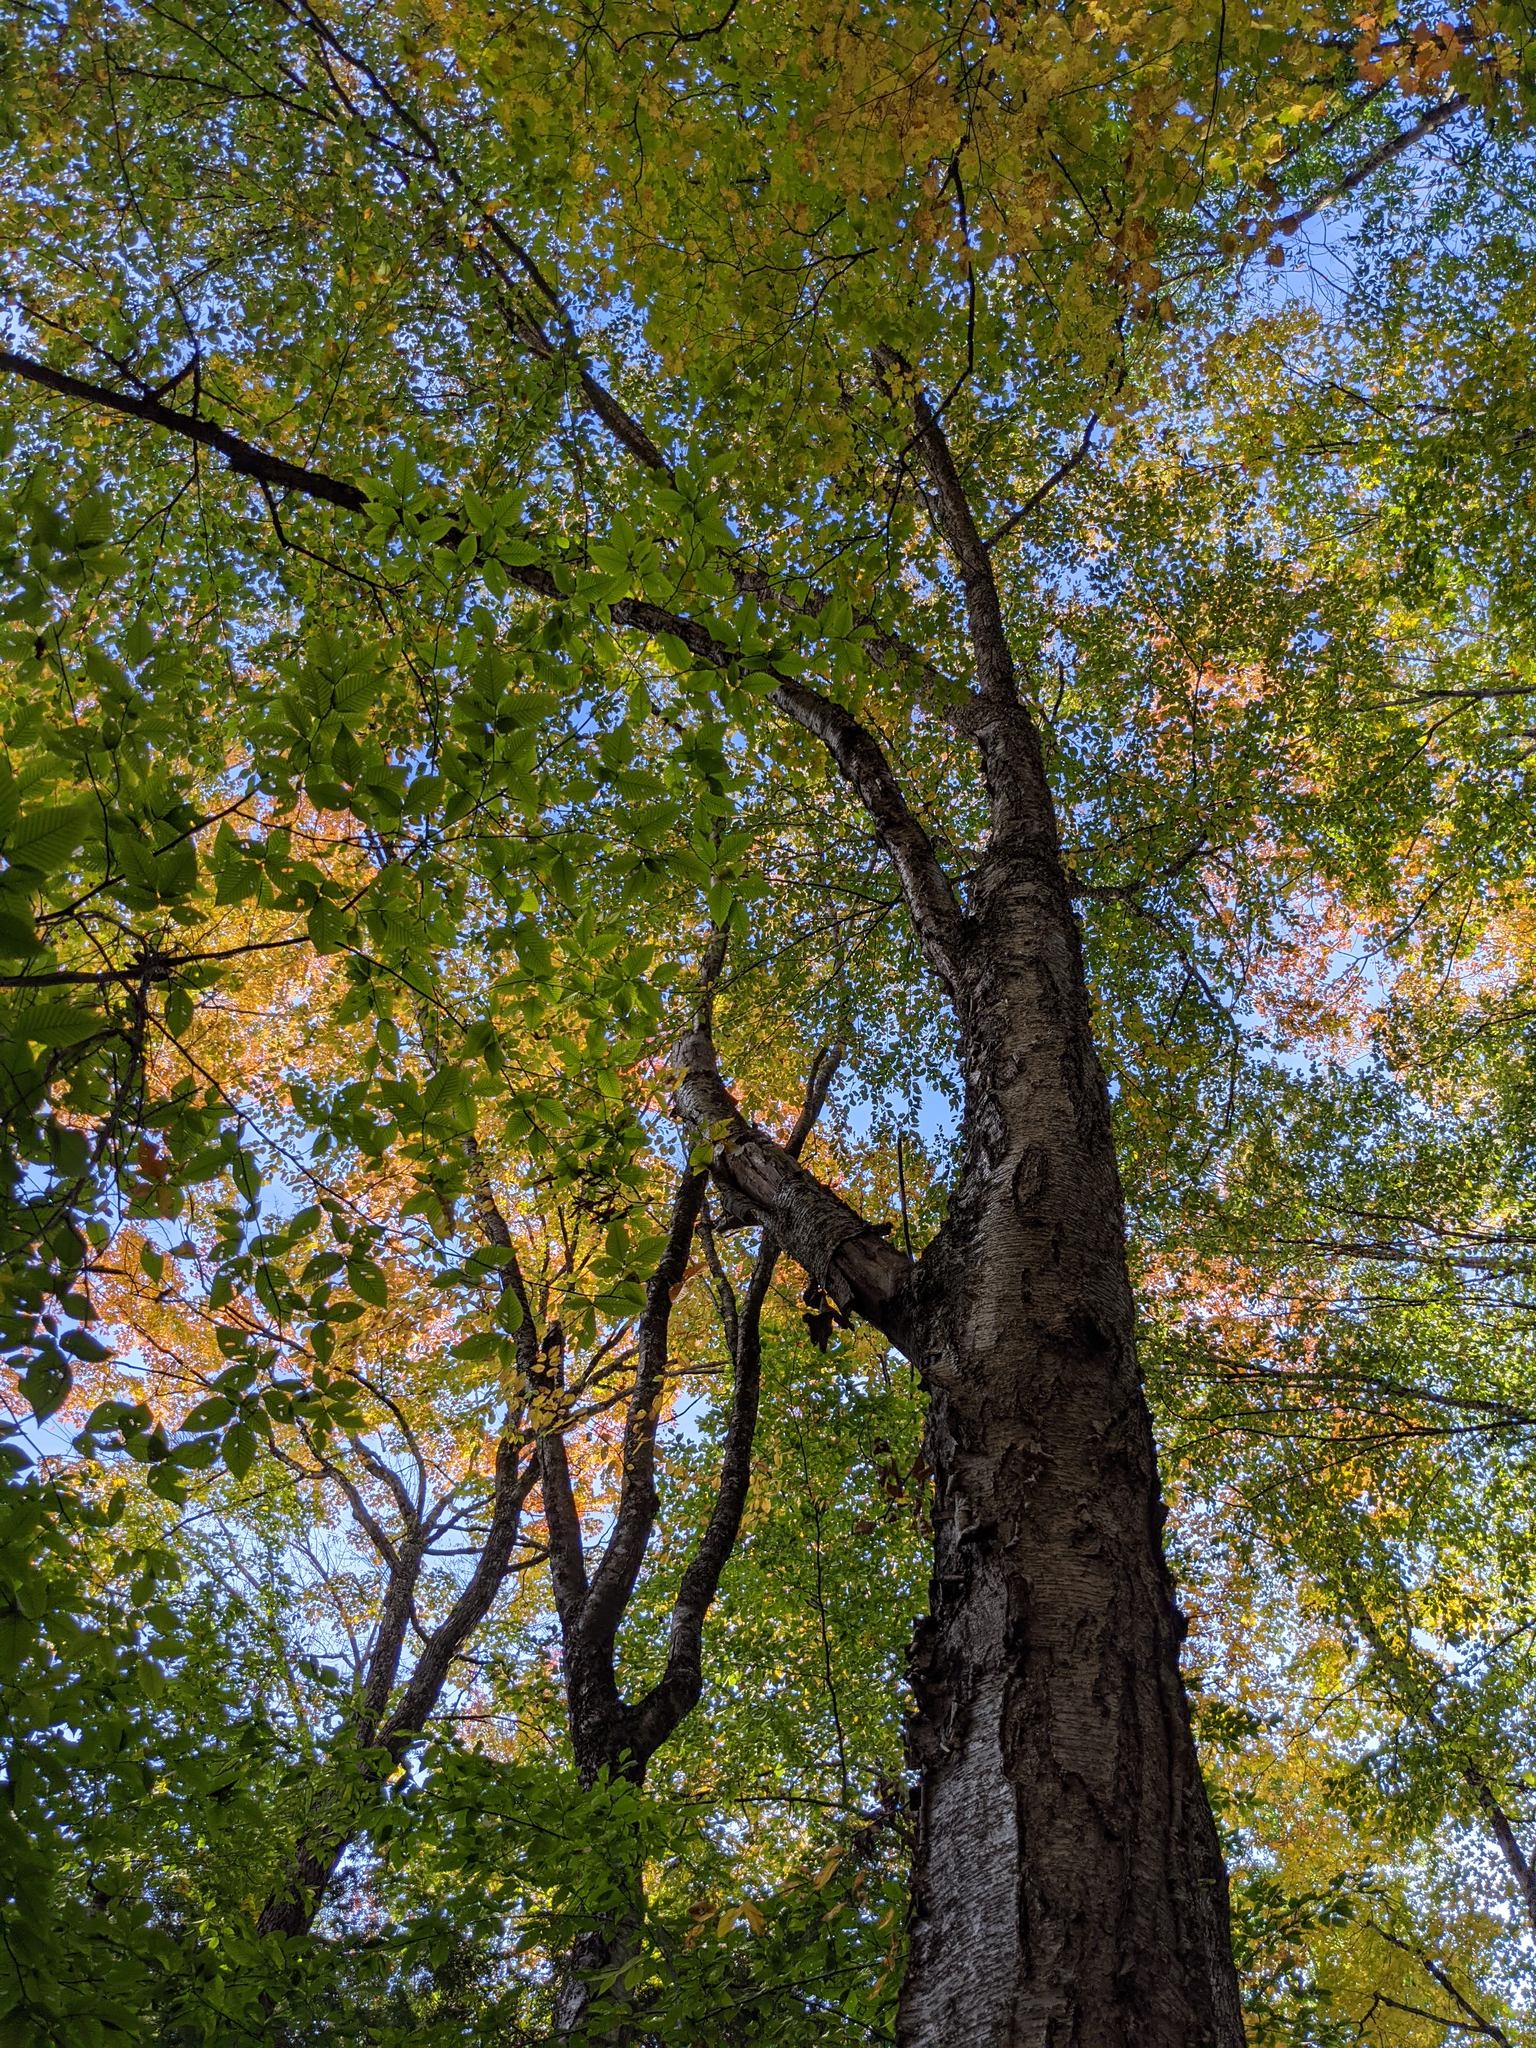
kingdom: Plantae
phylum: Tracheophyta
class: Magnoliopsida
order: Fagales
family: Betulaceae
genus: Betula
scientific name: Betula alleghaniensis
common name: Yellow birch
